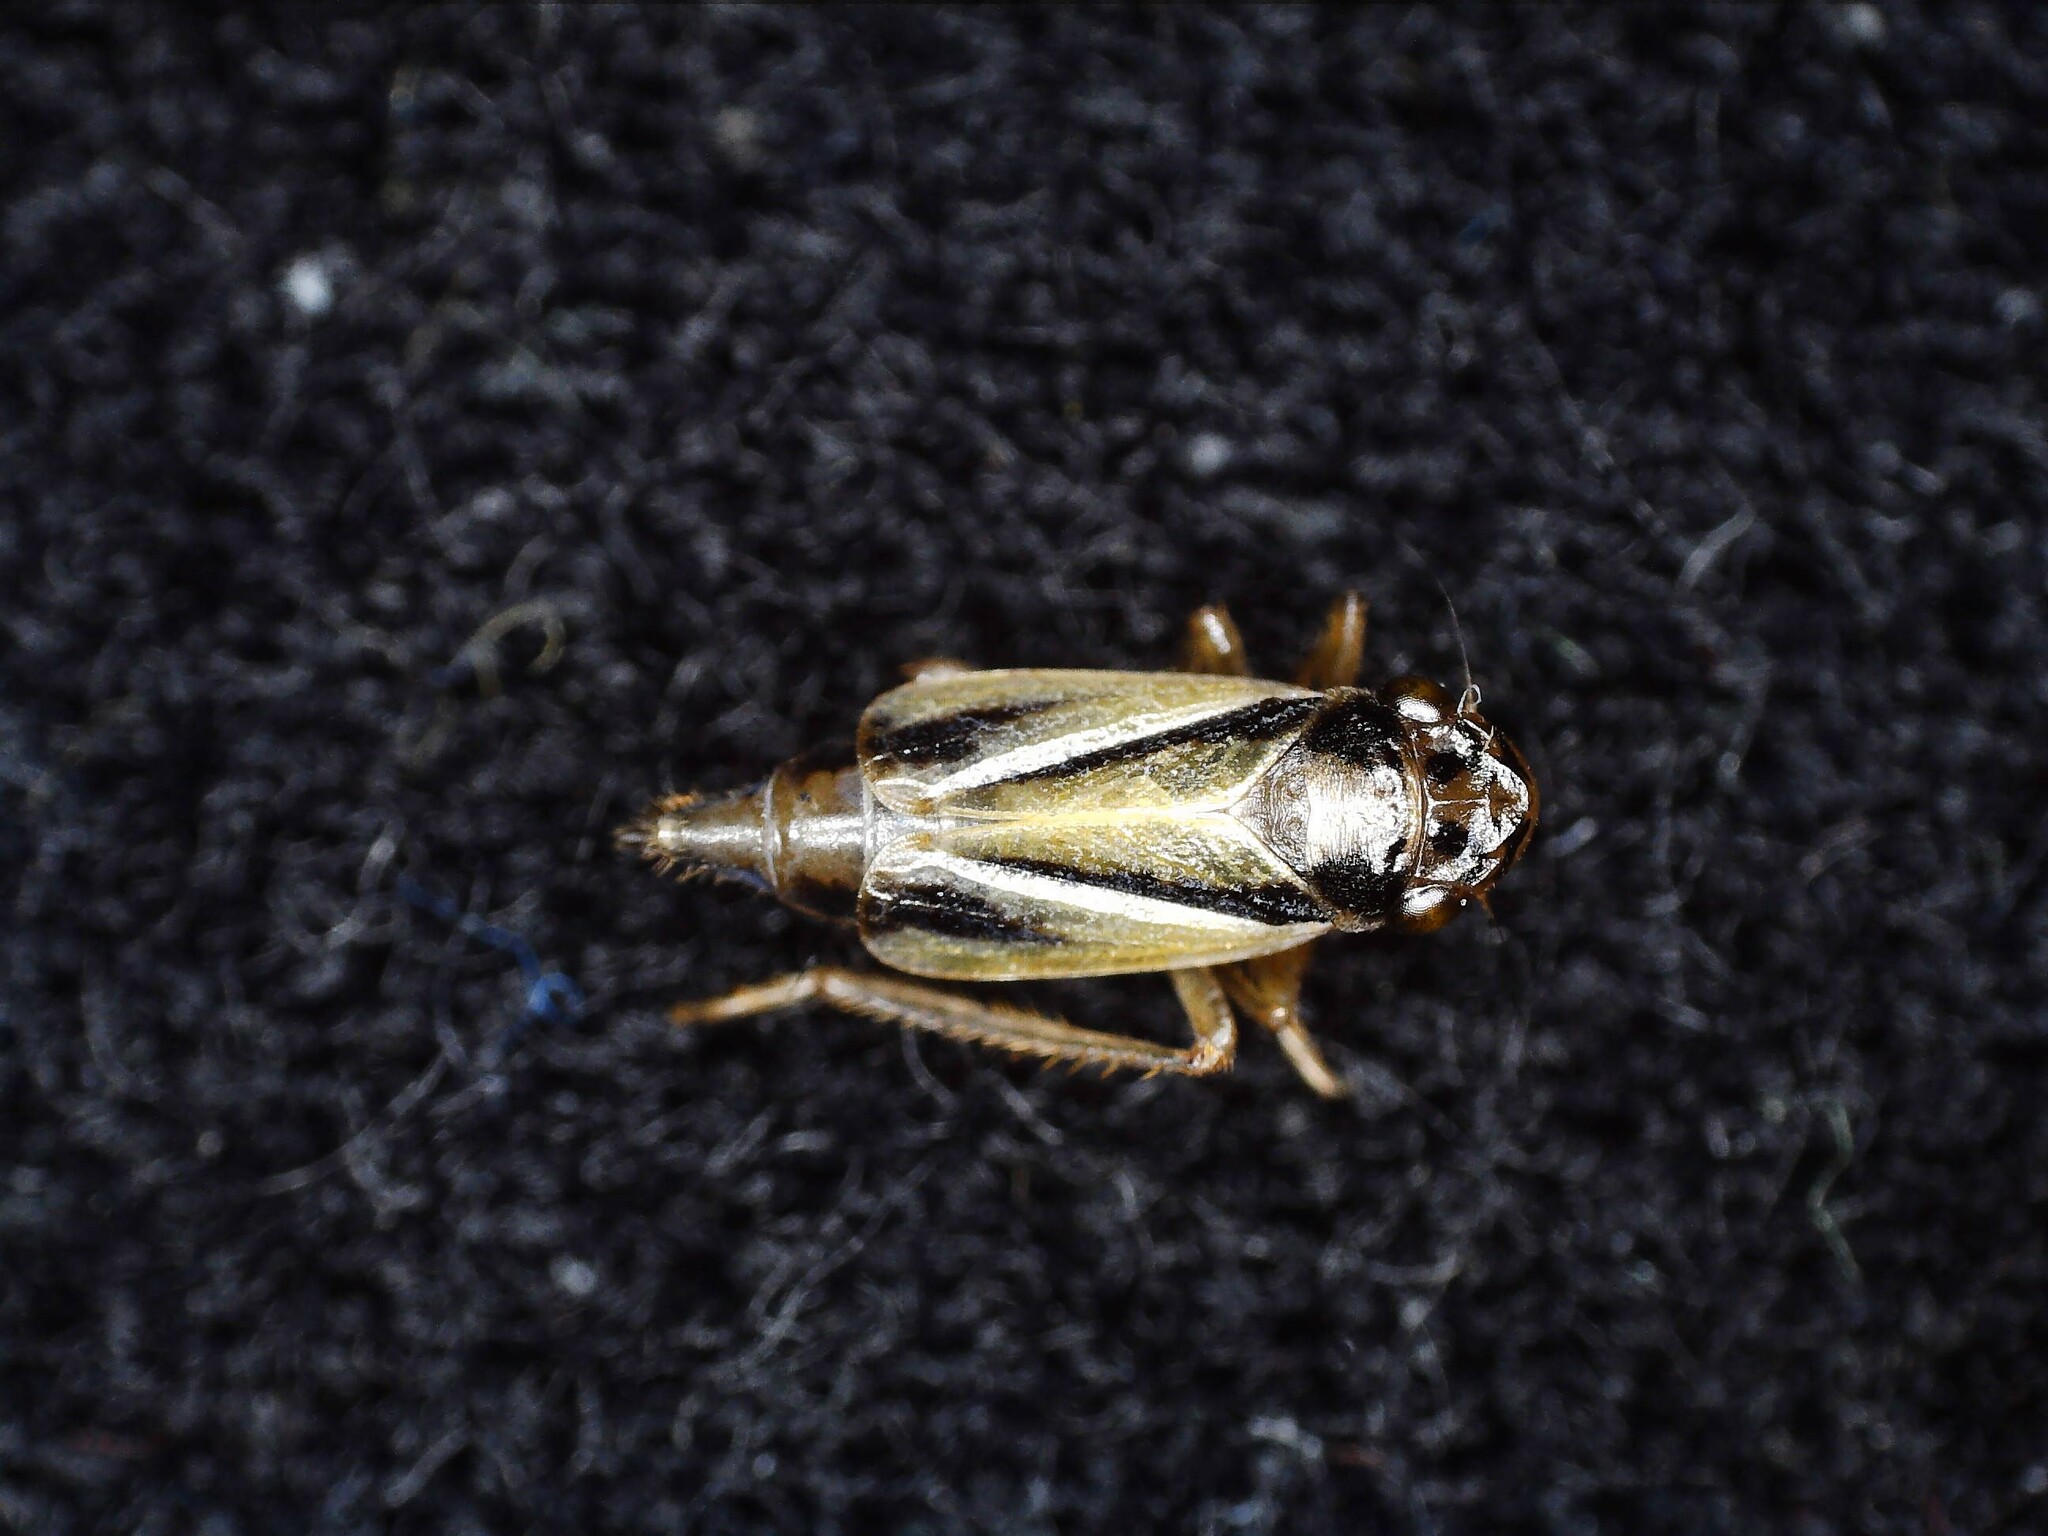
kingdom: Animalia
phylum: Arthropoda
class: Insecta
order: Hemiptera
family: Cicadellidae
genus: Evacanthus
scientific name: Evacanthus interruptus
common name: Leafhopper
